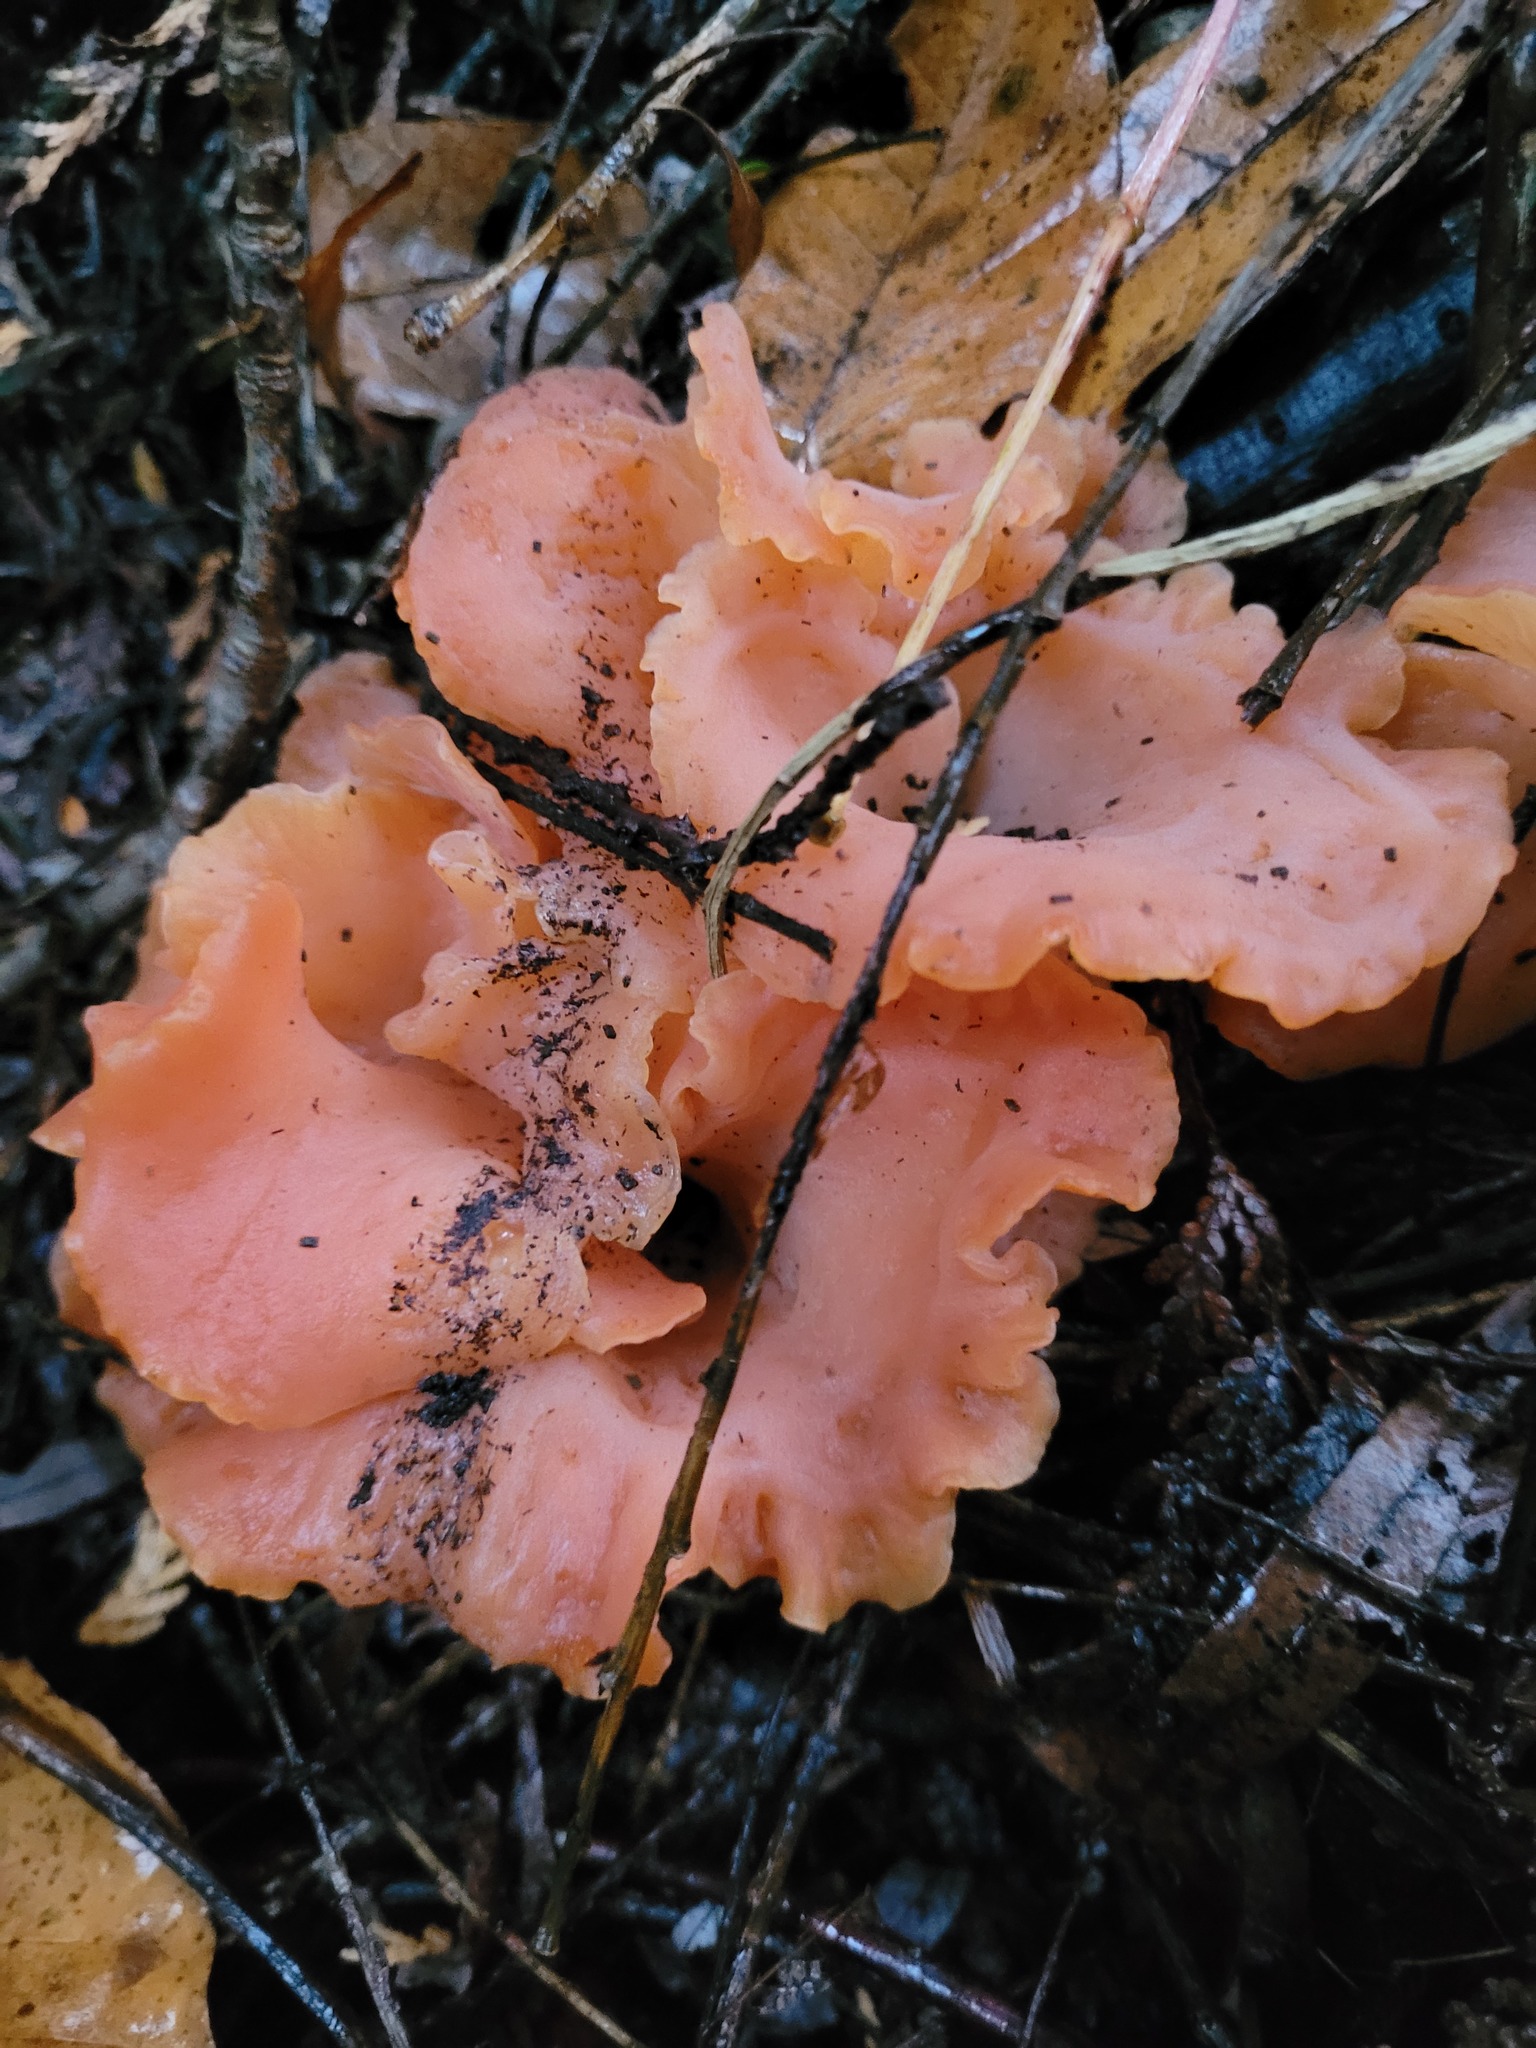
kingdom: Fungi
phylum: Basidiomycota
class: Agaricomycetes
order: Auriculariales
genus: Guepinia
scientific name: Guepinia helvelloides
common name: Salmon salad
